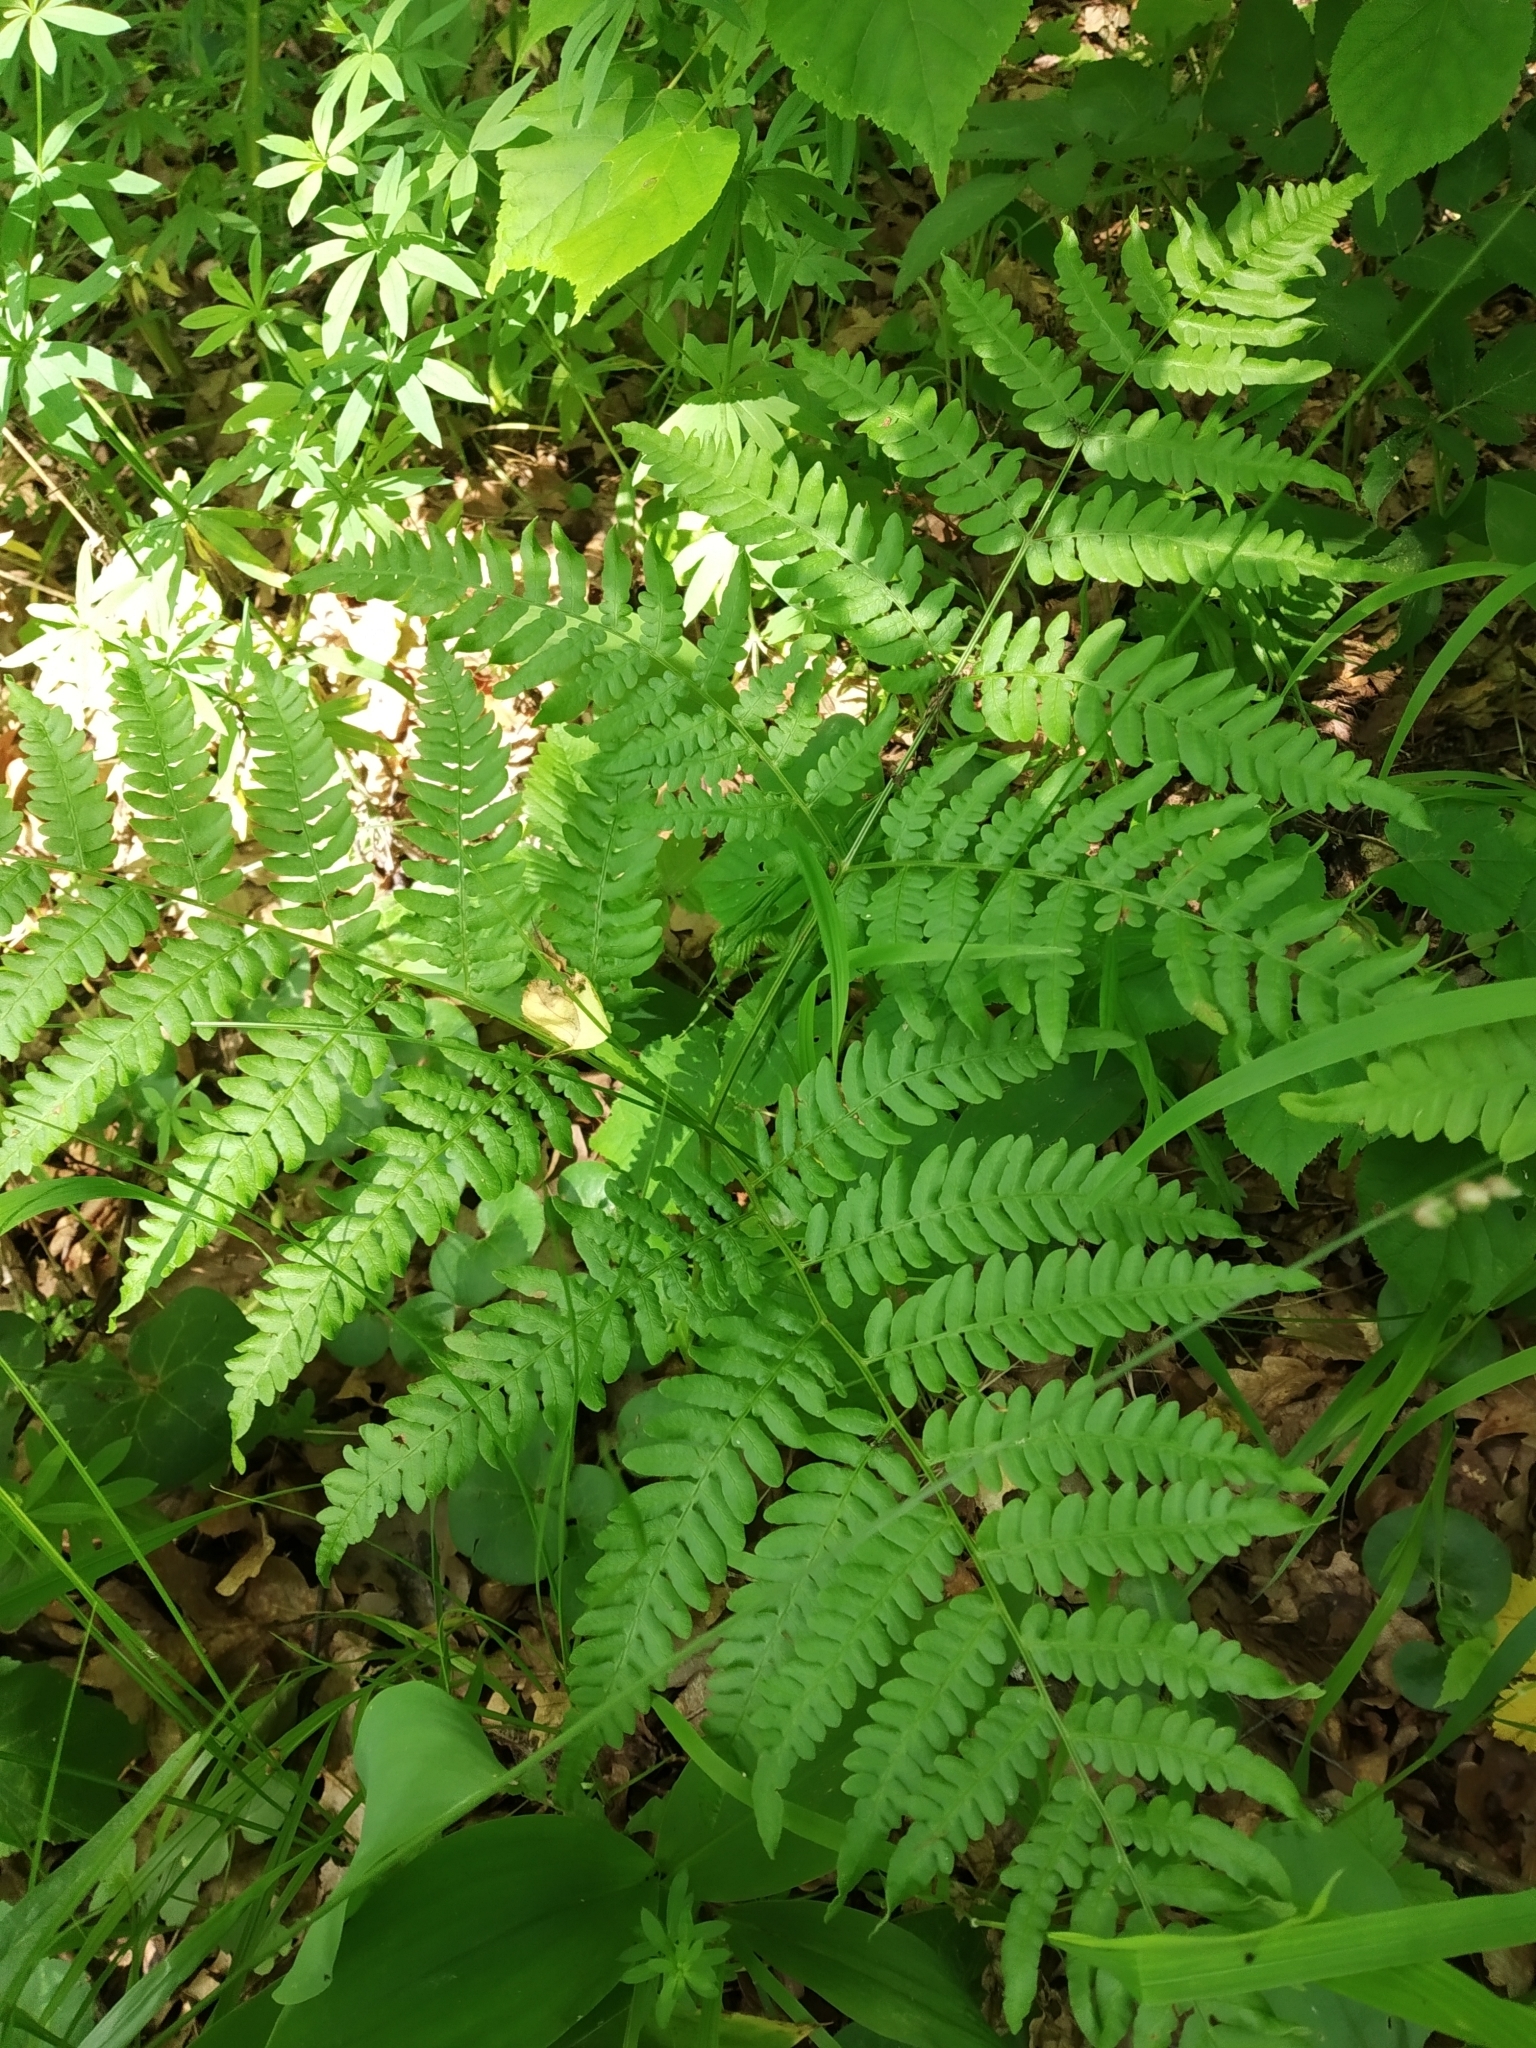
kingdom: Plantae
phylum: Tracheophyta
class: Polypodiopsida
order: Polypodiales
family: Dennstaedtiaceae
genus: Pteridium
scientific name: Pteridium aquilinum
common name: Bracken
